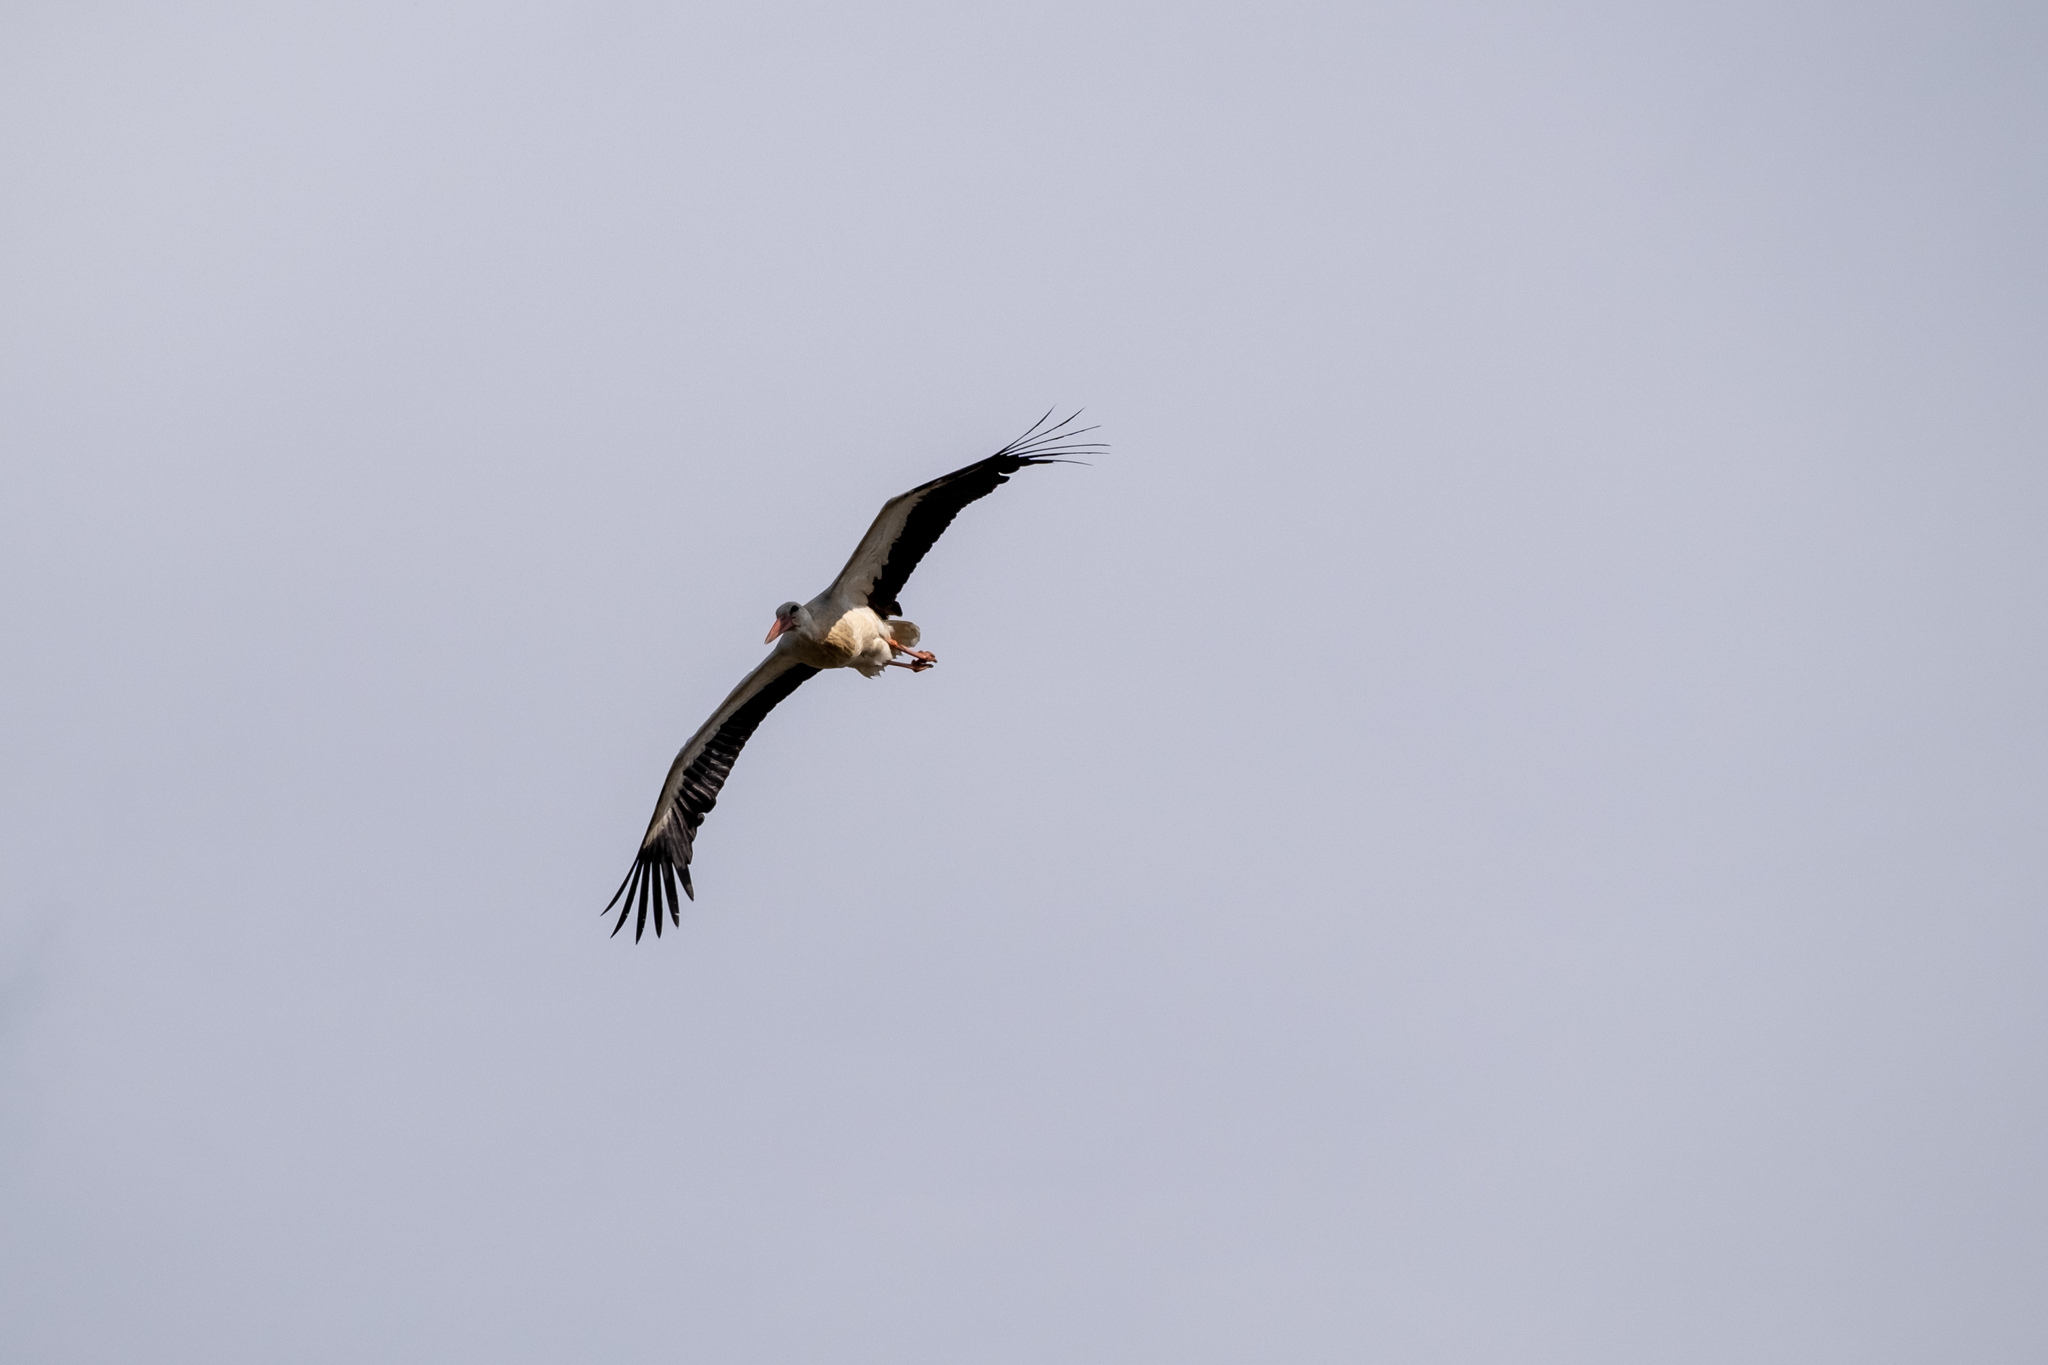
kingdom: Animalia
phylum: Chordata
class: Aves
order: Ciconiiformes
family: Ciconiidae
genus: Ciconia
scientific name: Ciconia ciconia
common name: White stork
